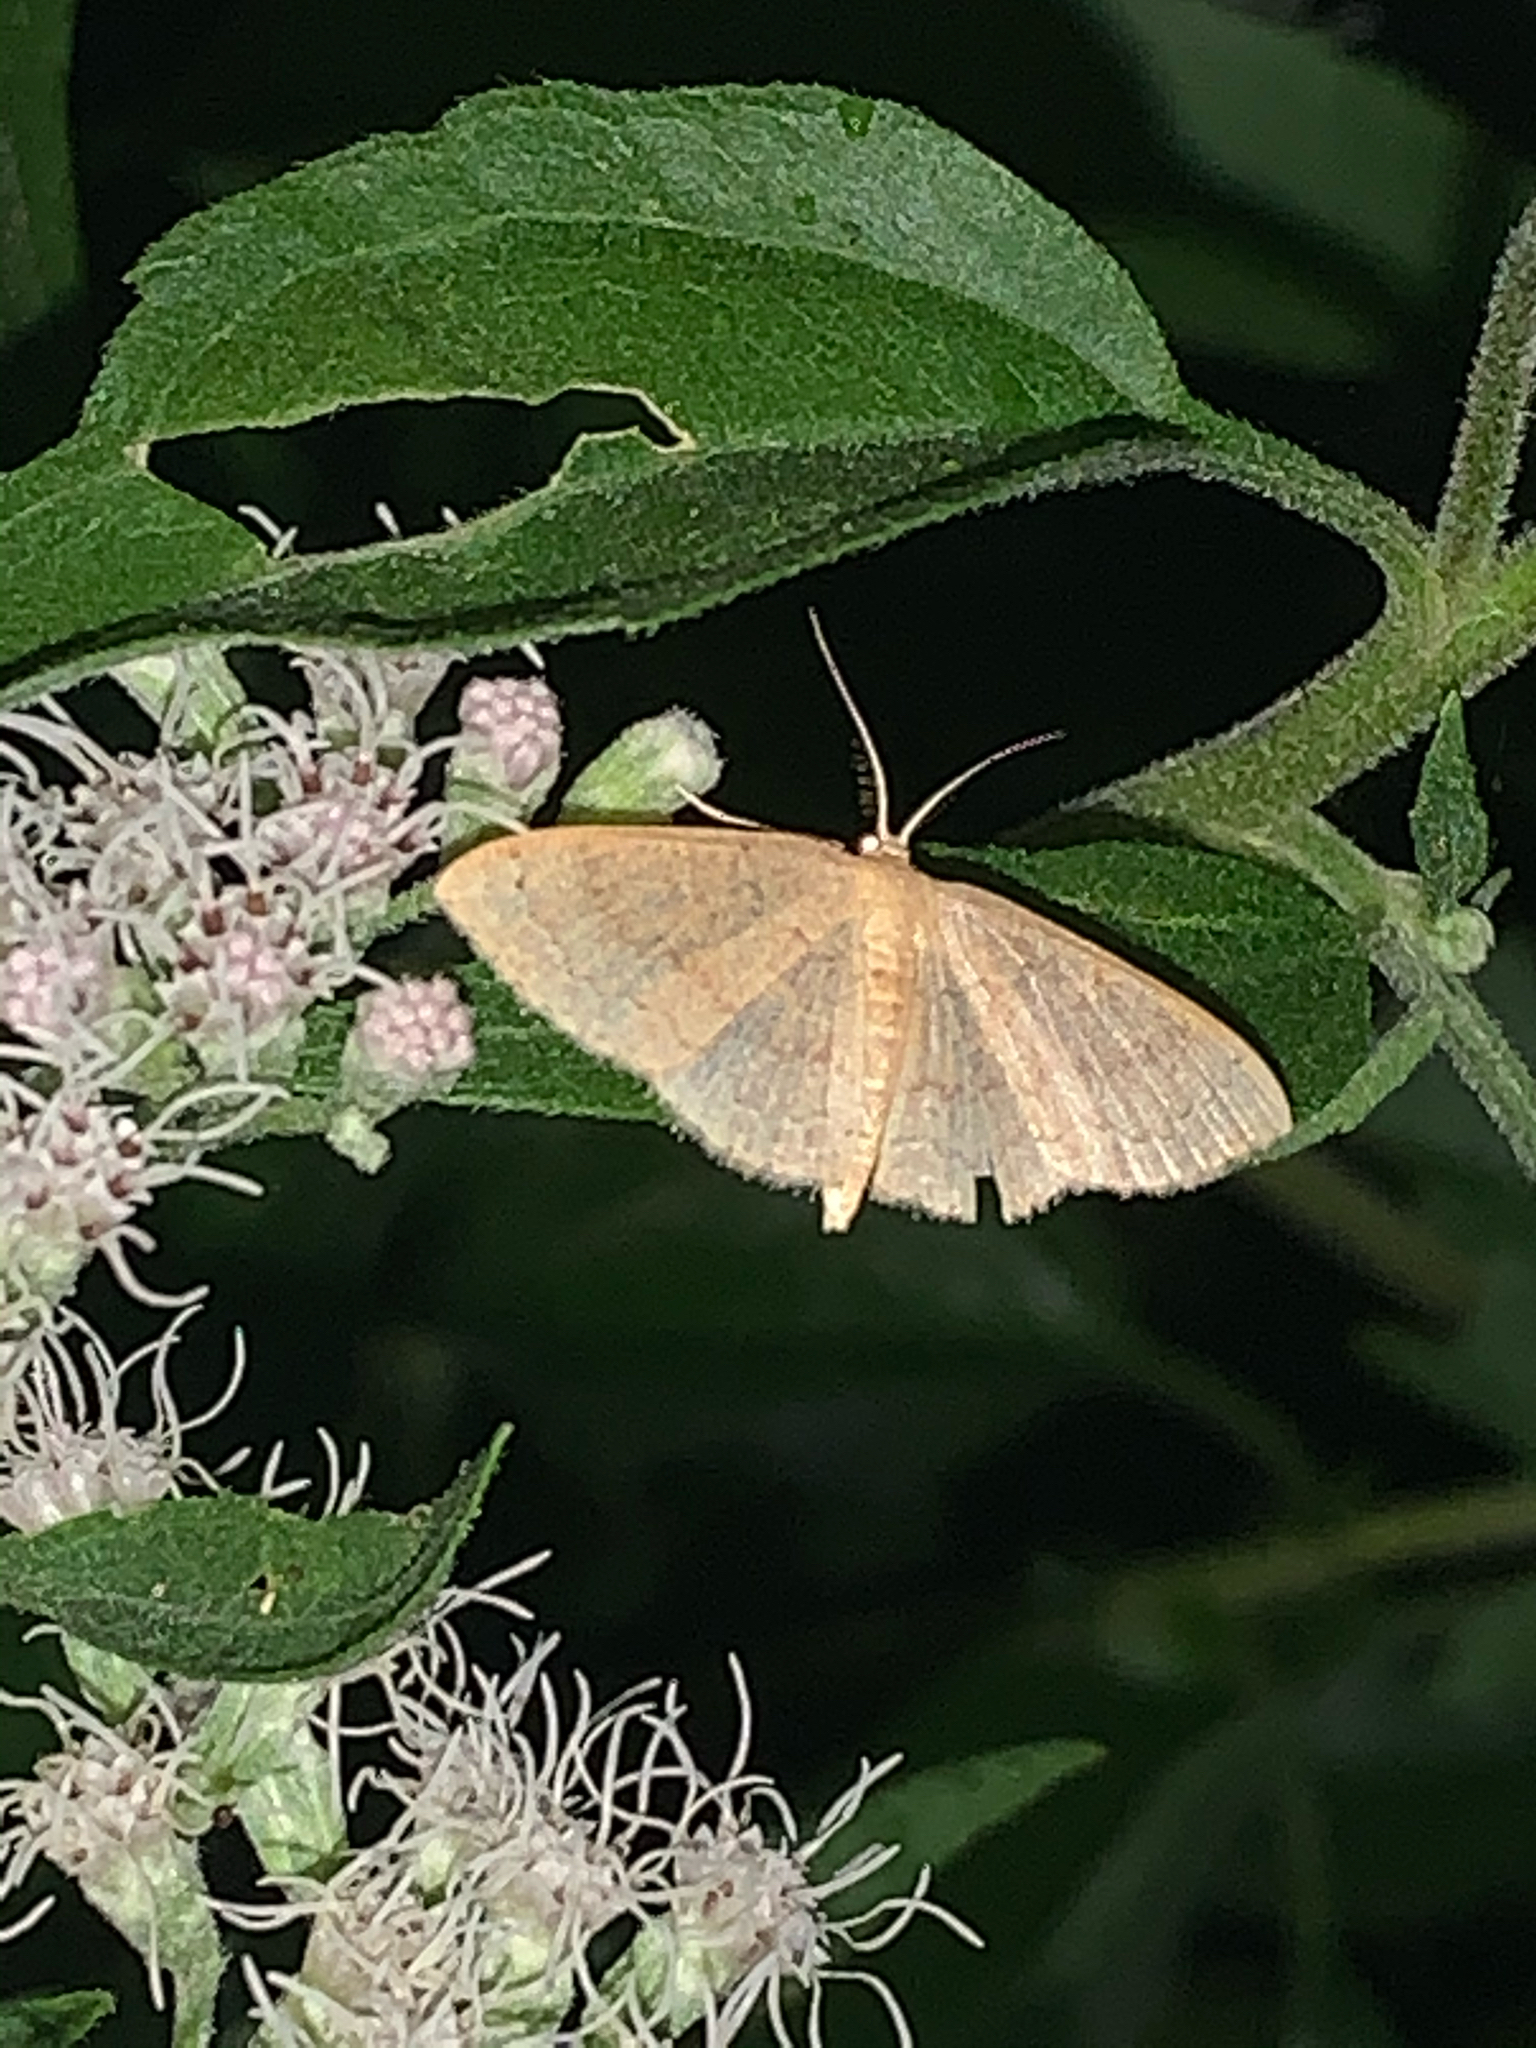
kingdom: Animalia
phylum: Arthropoda
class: Insecta
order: Lepidoptera
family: Geometridae
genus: Pleuroprucha
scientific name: Pleuroprucha insulsaria
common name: Common tan wave
